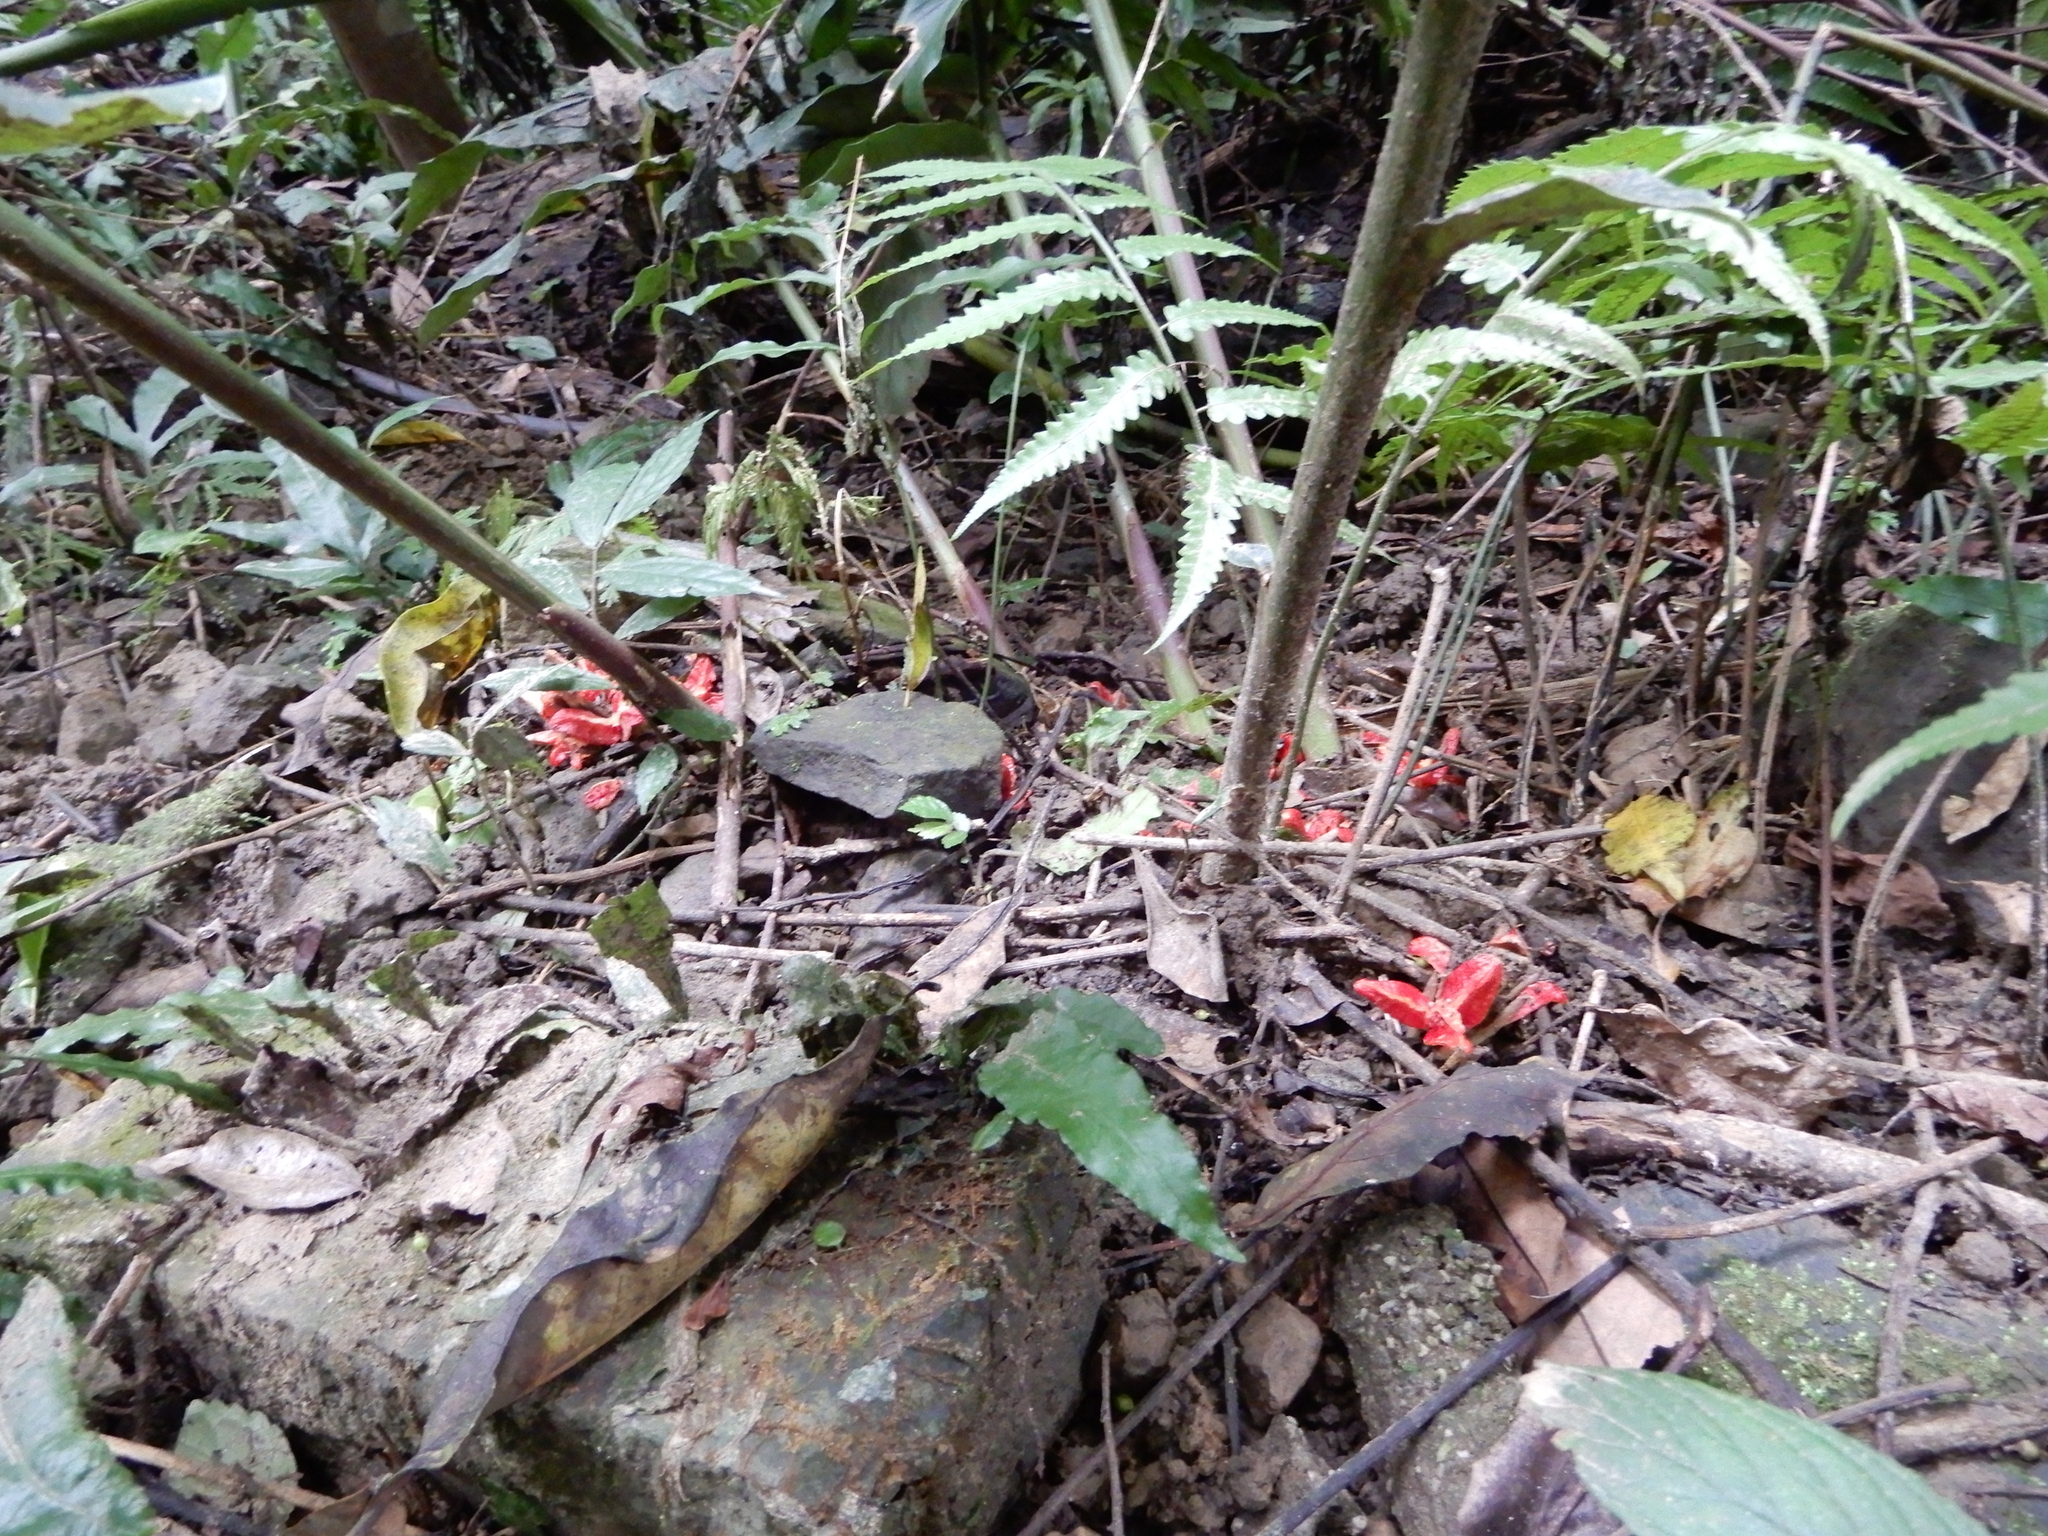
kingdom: Plantae
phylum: Tracheophyta
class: Liliopsida
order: Zingiberales
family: Zingiberaceae
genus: Zingiber
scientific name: Zingiber kawagoii
